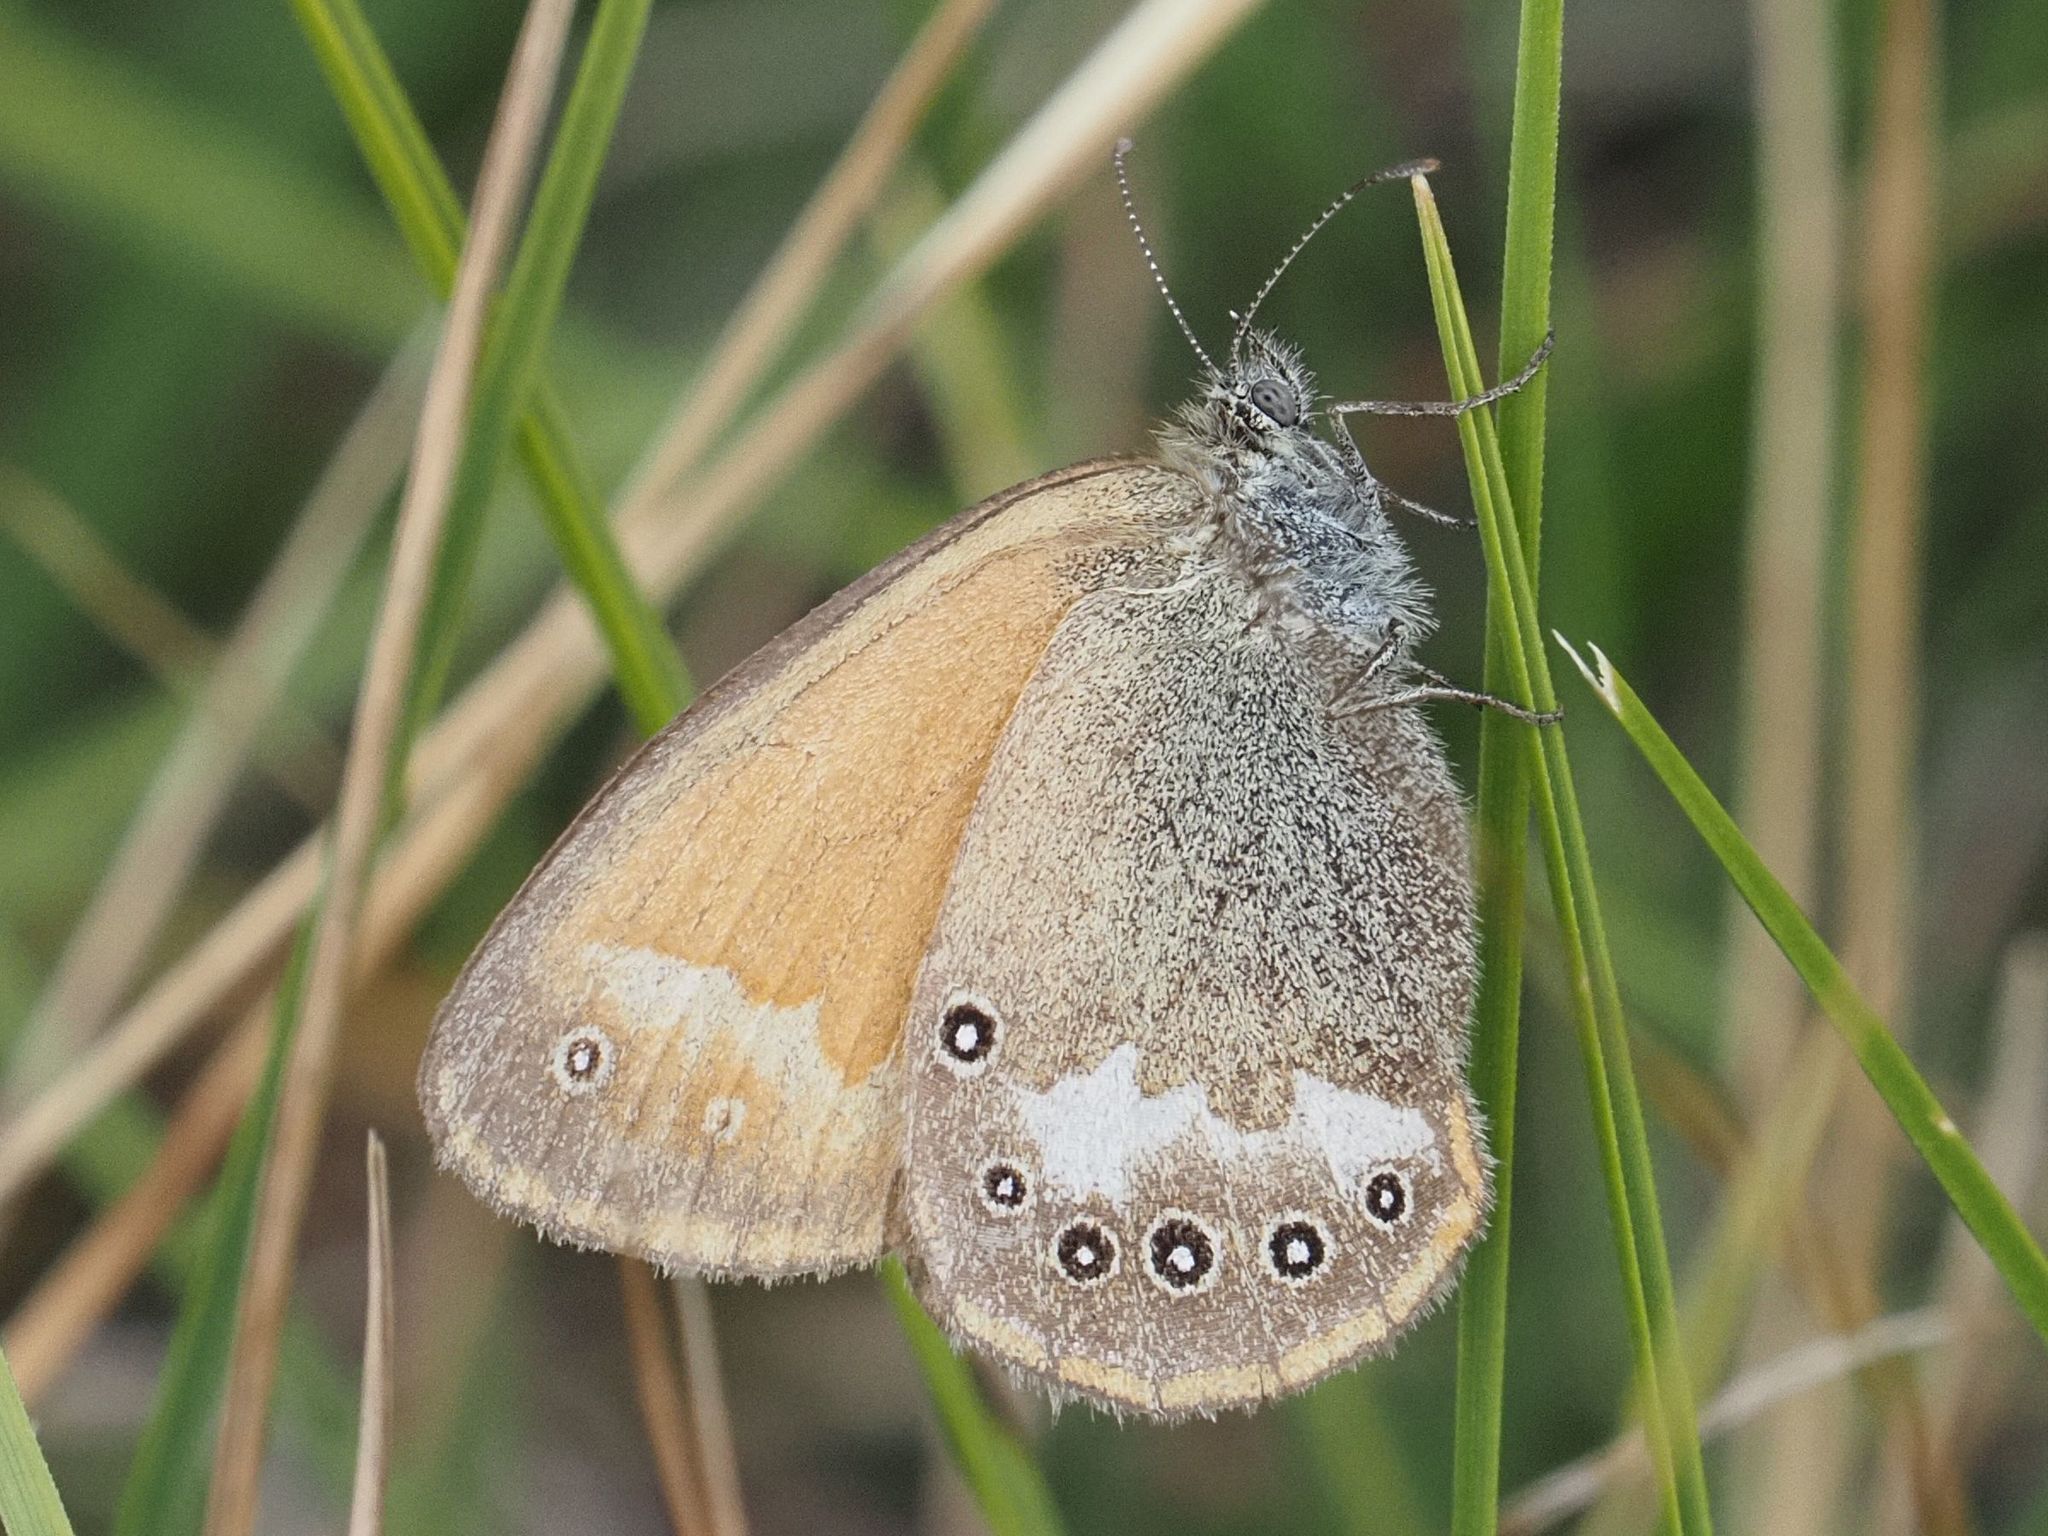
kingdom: Animalia
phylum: Arthropoda
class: Insecta
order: Lepidoptera
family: Nymphalidae
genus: Coenonympha
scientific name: Coenonympha iphis
